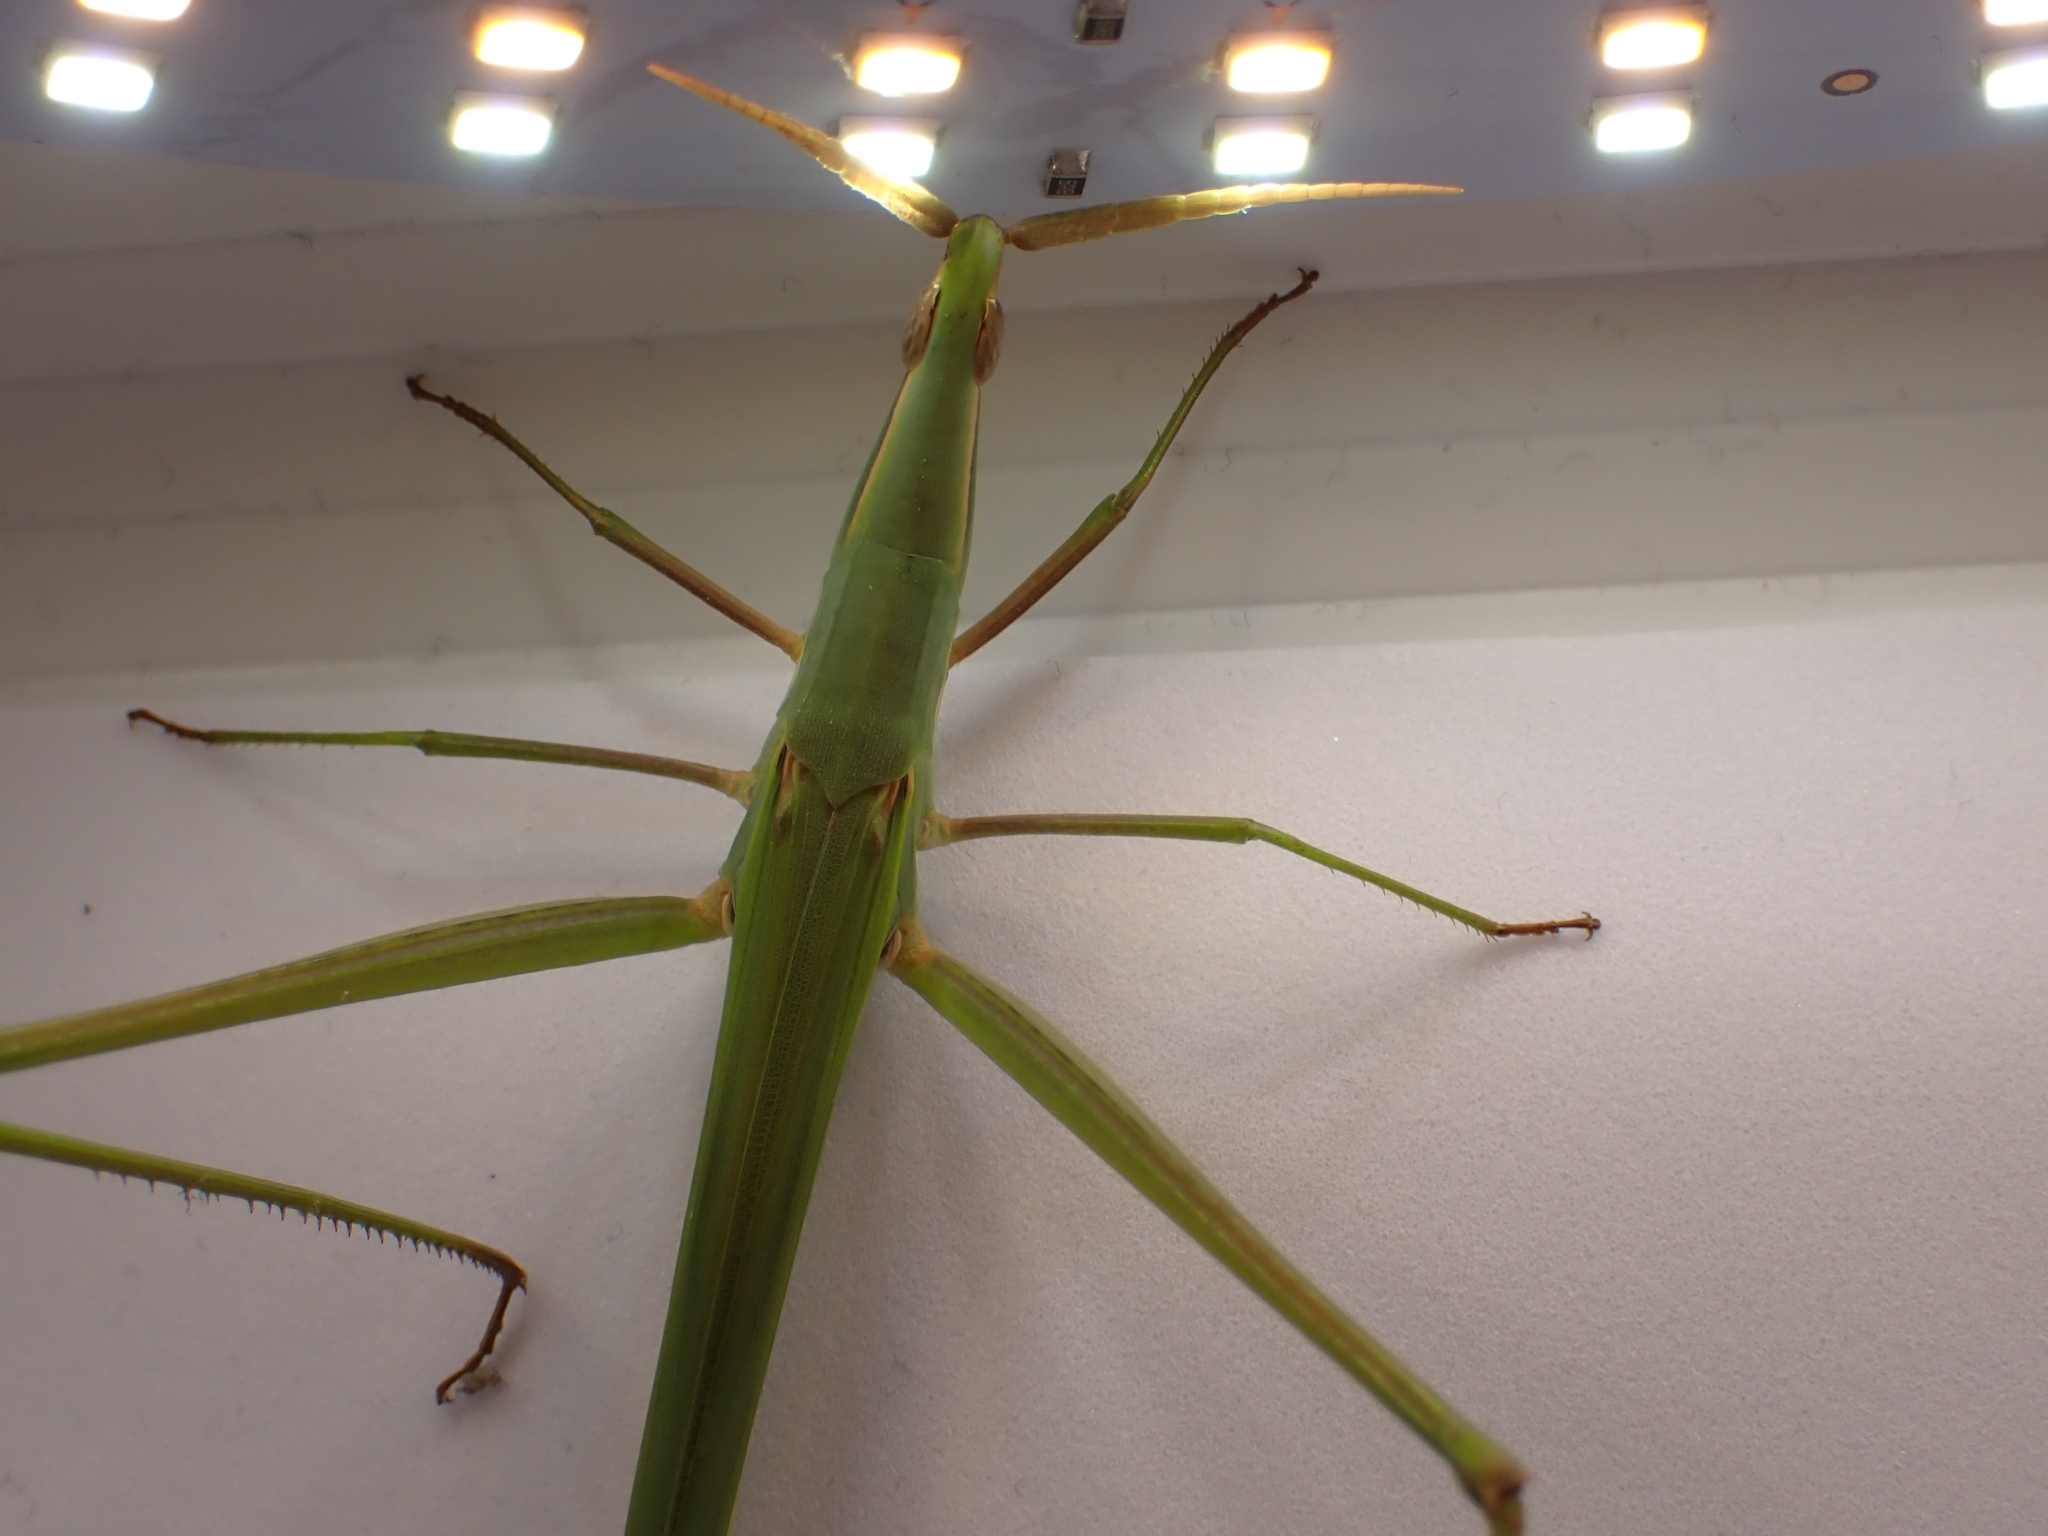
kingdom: Animalia
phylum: Arthropoda
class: Insecta
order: Orthoptera
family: Acrididae
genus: Acrida
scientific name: Acrida conica
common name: Giant green slantface
